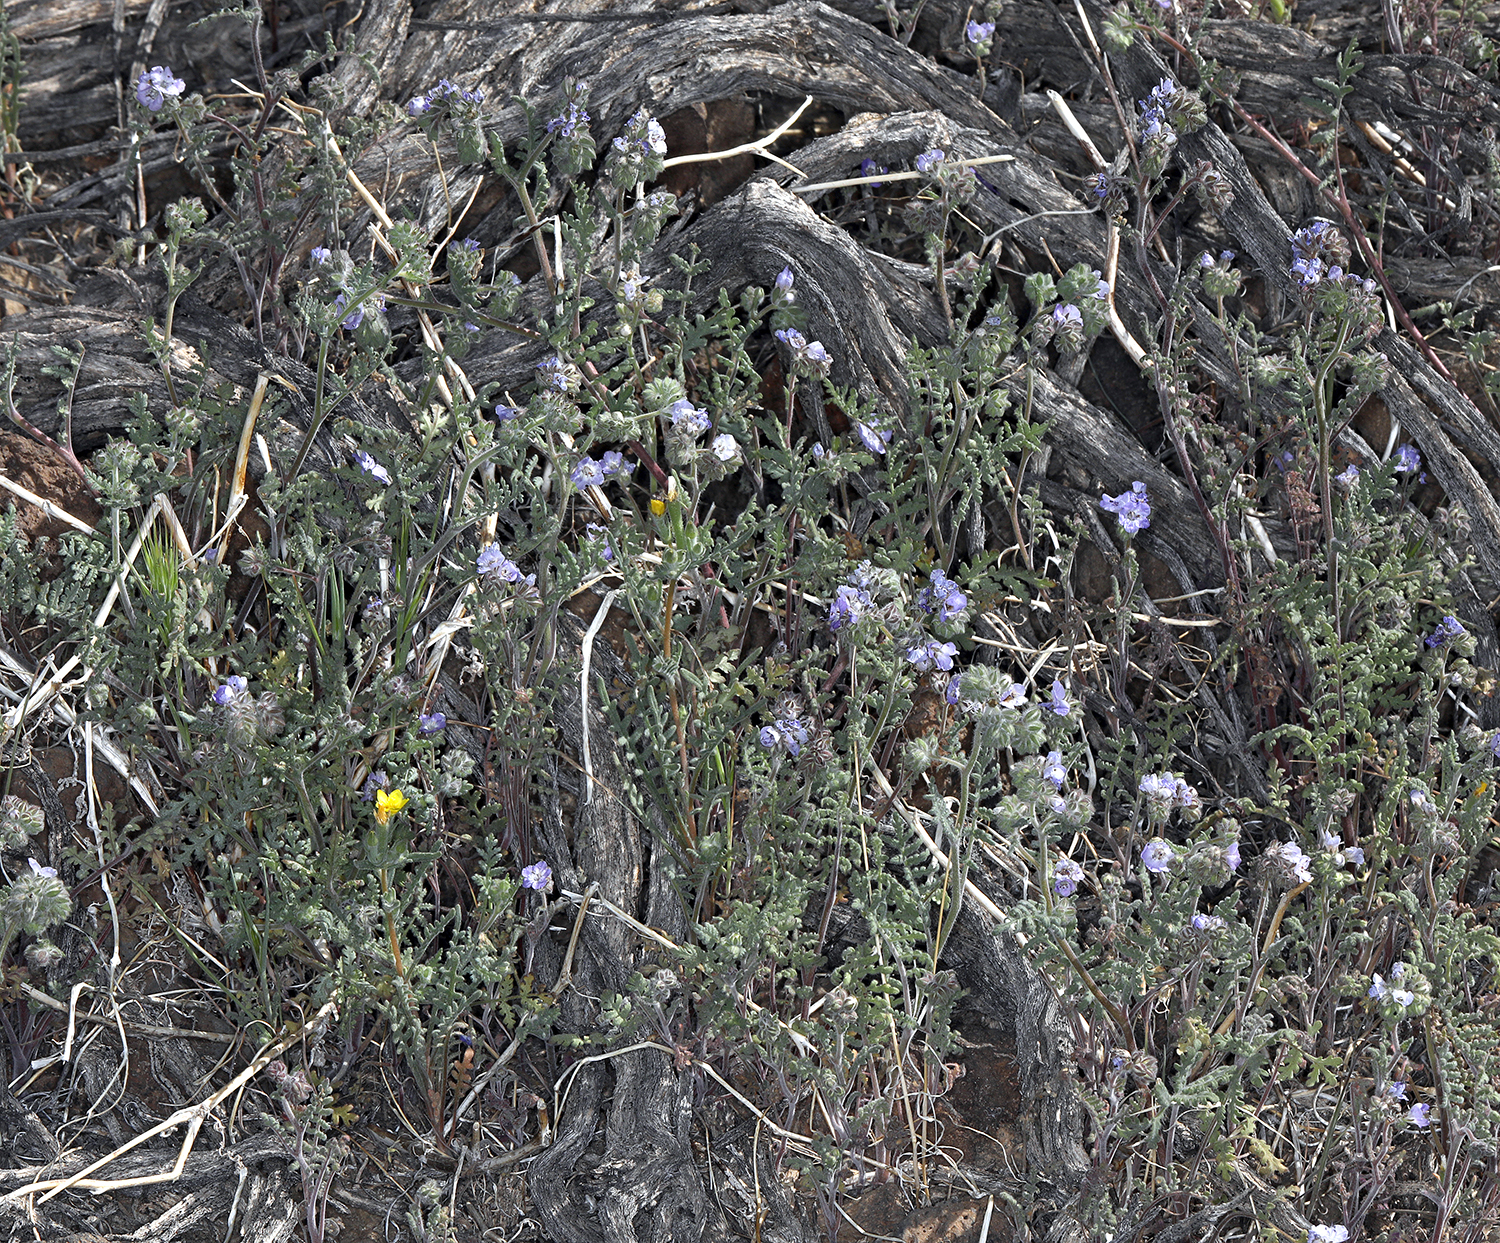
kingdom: Plantae
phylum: Tracheophyta
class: Magnoliopsida
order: Boraginales
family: Hydrophyllaceae
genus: Phacelia
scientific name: Phacelia distans
